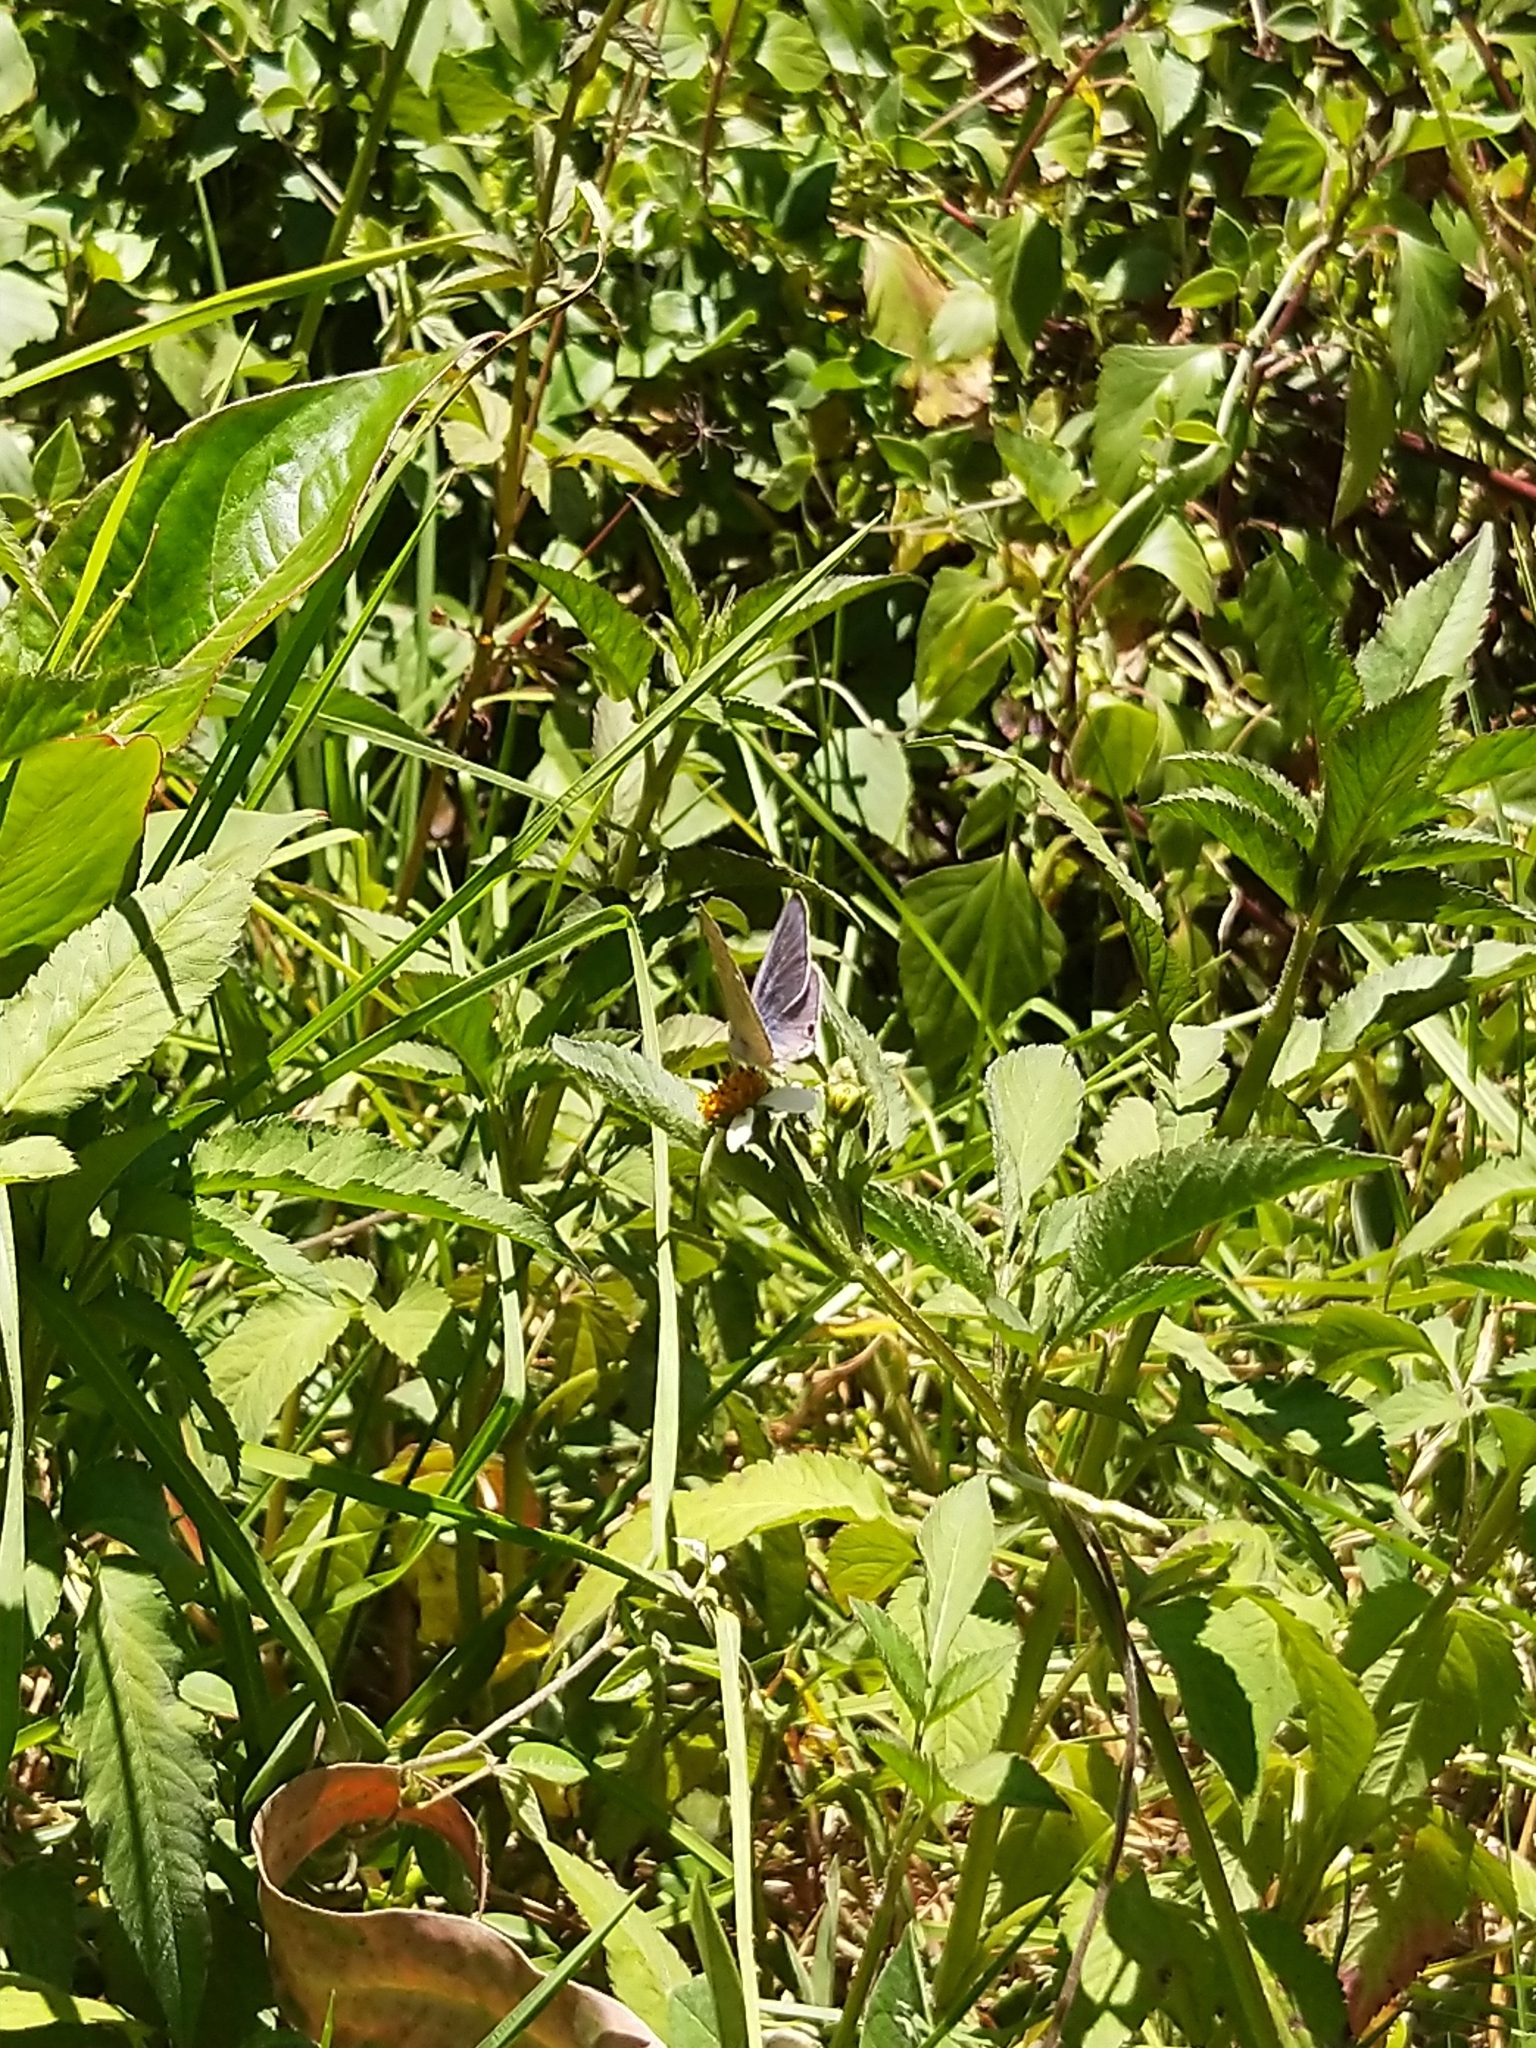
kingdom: Animalia
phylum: Arthropoda
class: Insecta
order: Lepidoptera
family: Lycaenidae
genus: Lampides
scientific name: Lampides boeticus
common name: Long-tailed blue
